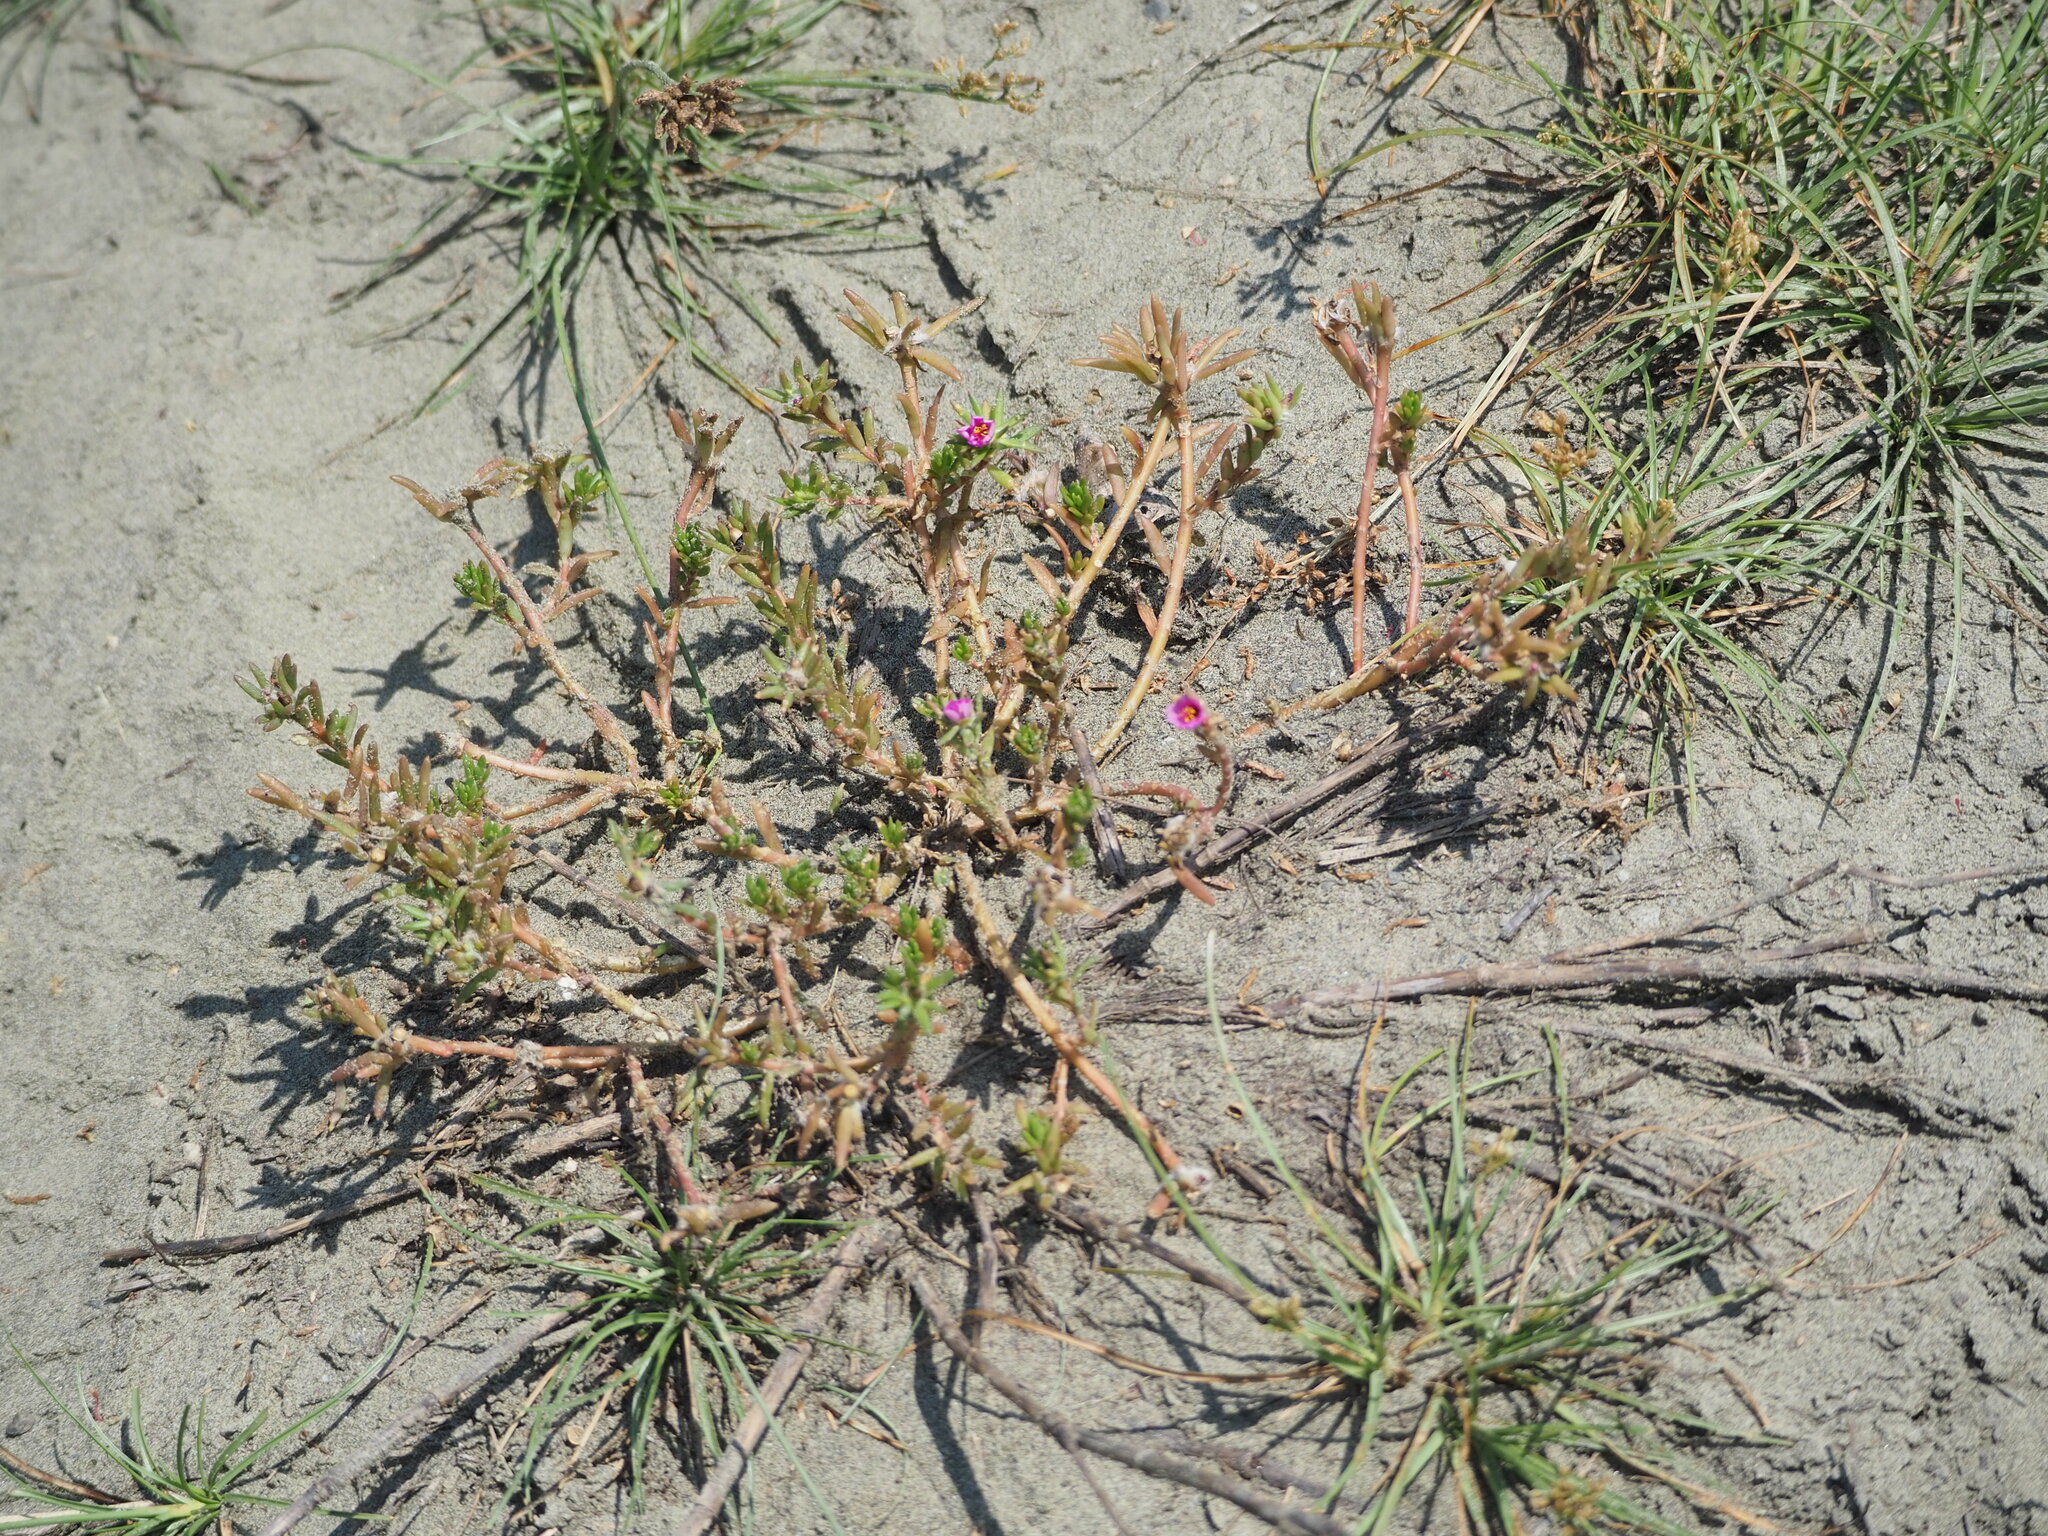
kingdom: Plantae
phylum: Tracheophyta
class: Magnoliopsida
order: Caryophyllales
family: Portulacaceae
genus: Portulaca
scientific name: Portulaca pilosa
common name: Kiss me quick
